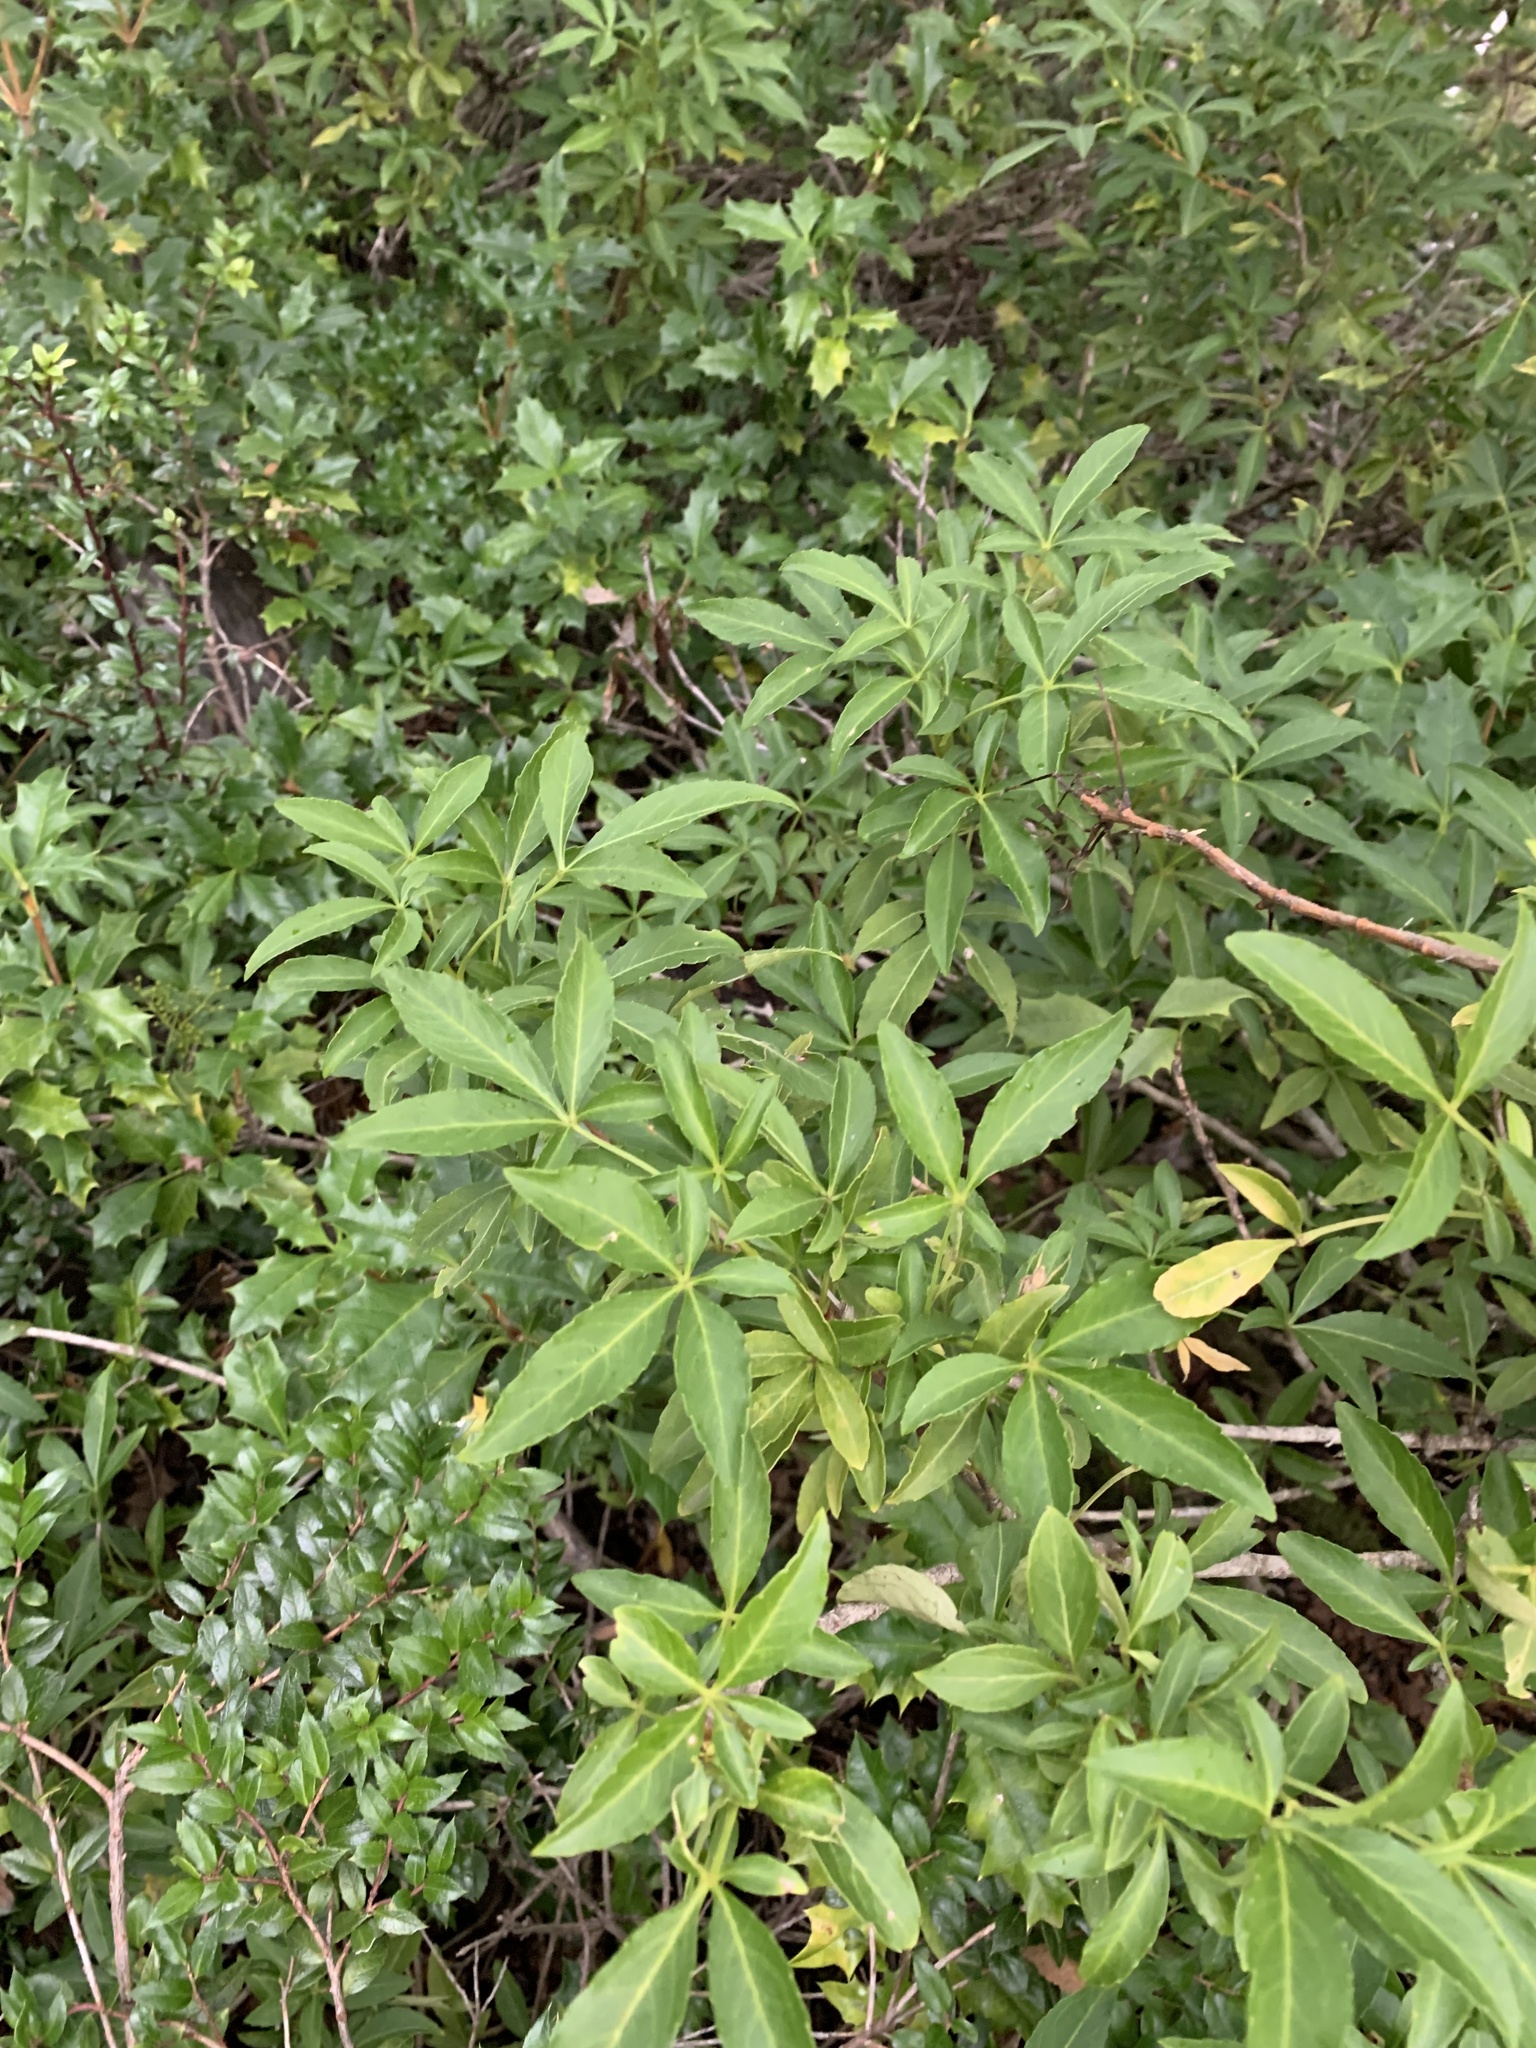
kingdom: Plantae
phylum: Tracheophyta
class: Magnoliopsida
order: Apiales
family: Araliaceae
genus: Raukaua
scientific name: Raukaua laetevirens
